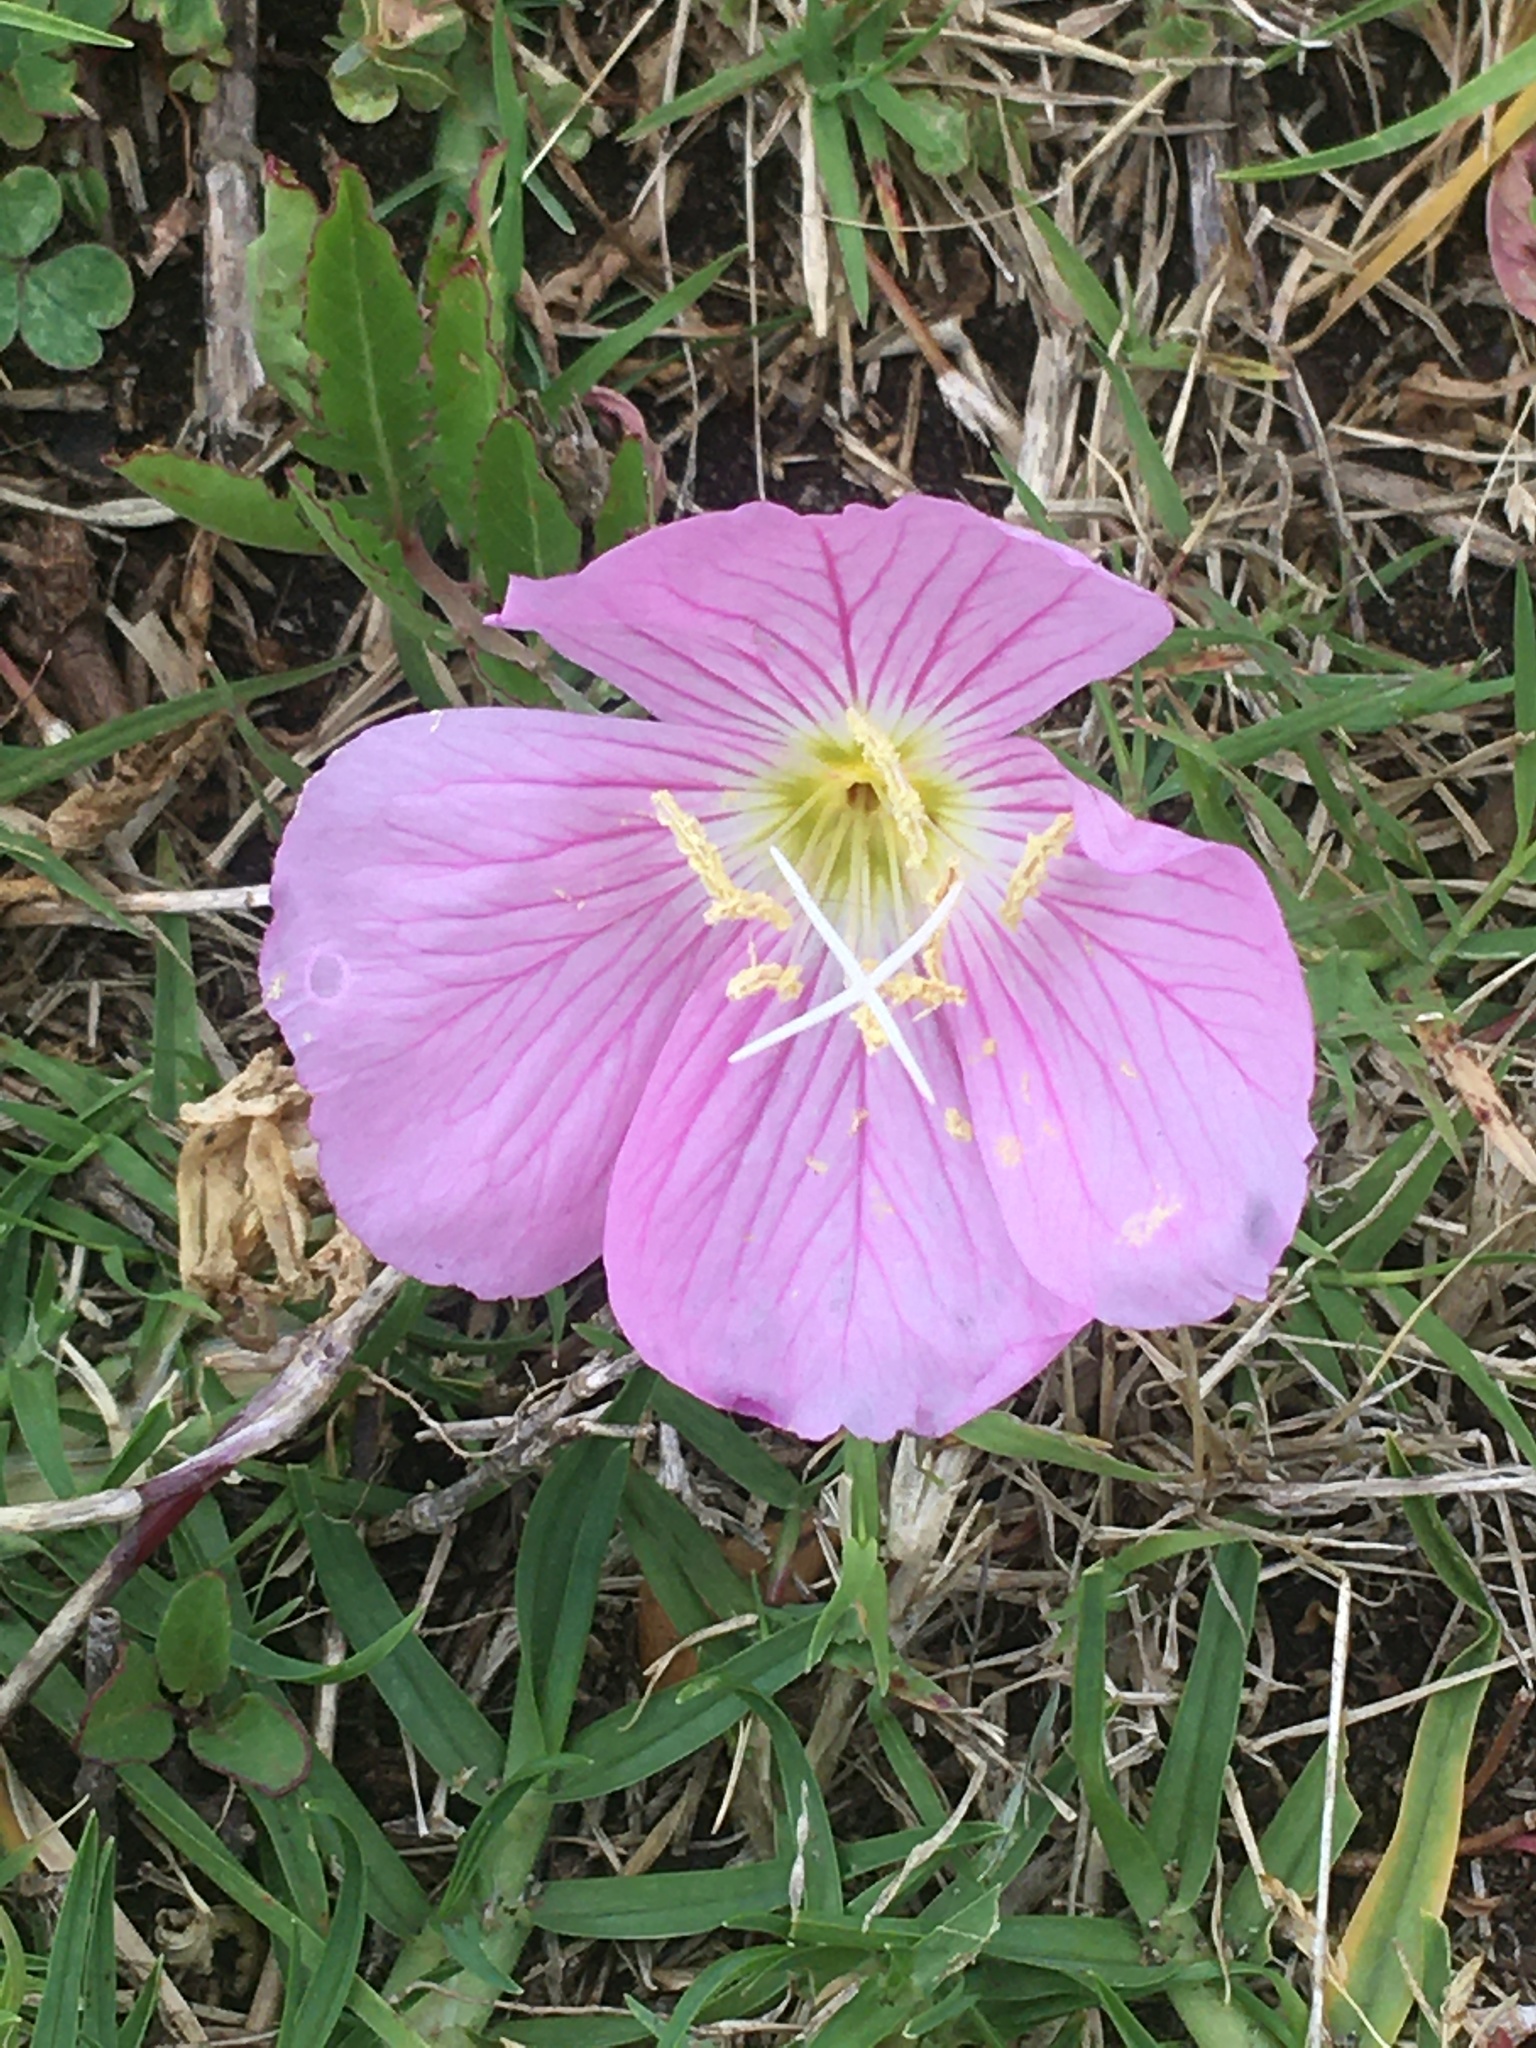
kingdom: Plantae
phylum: Tracheophyta
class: Magnoliopsida
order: Myrtales
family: Onagraceae
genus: Oenothera
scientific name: Oenothera speciosa
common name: White evening-primrose
